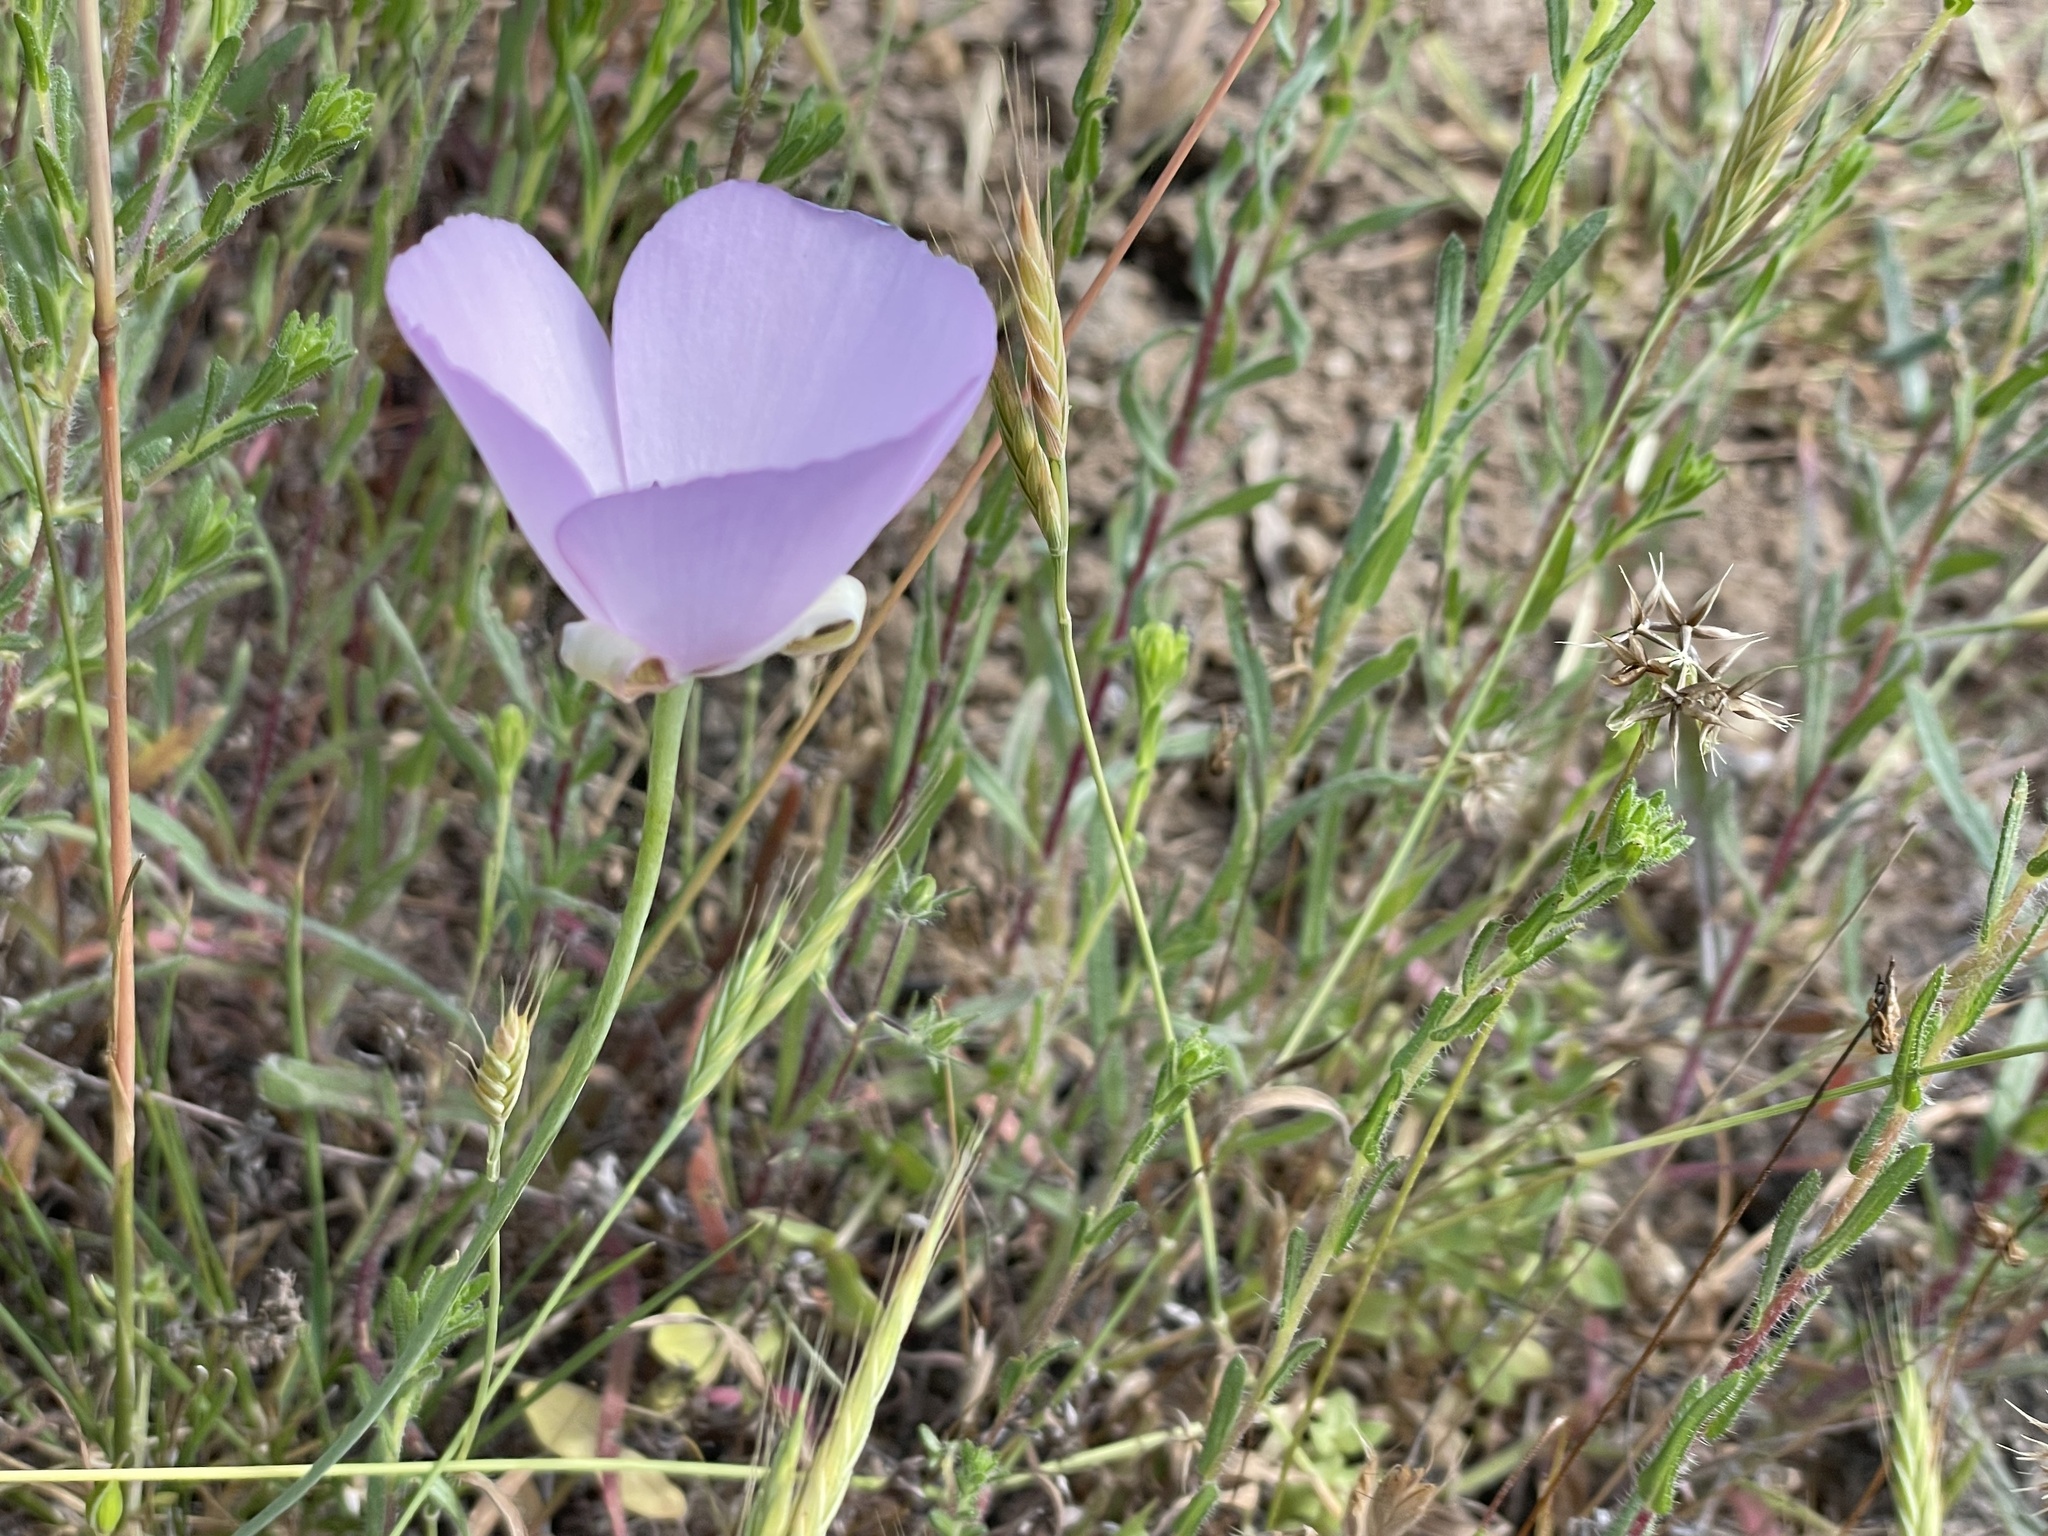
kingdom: Plantae
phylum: Tracheophyta
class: Liliopsida
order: Liliales
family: Liliaceae
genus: Calochortus
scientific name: Calochortus splendens
